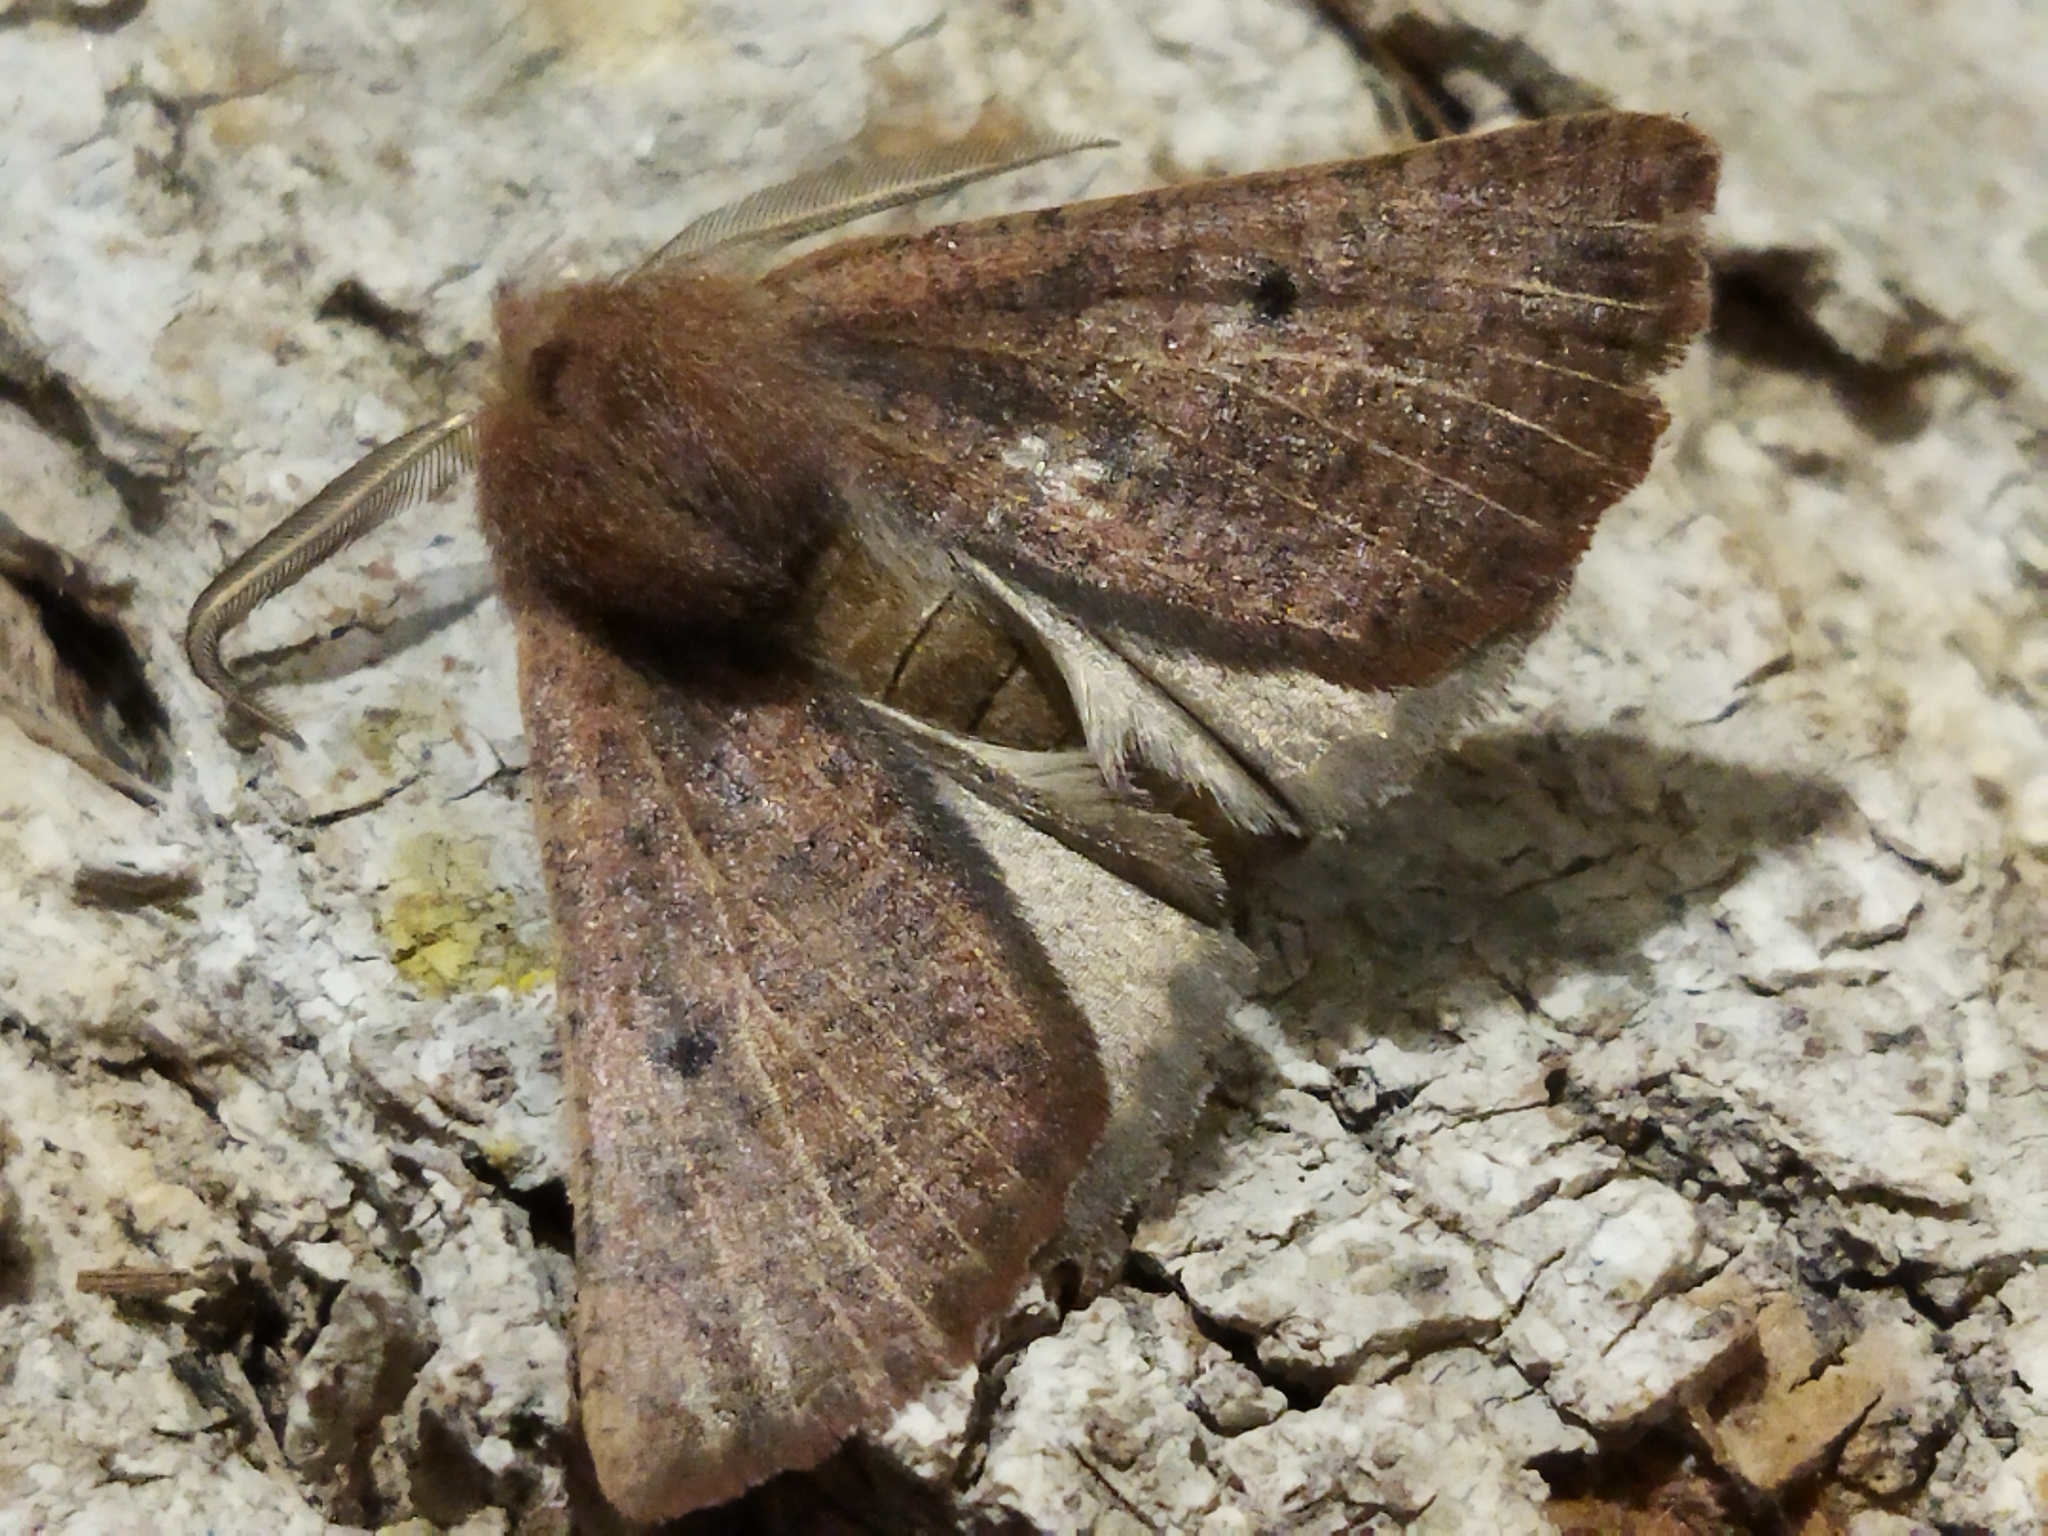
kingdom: Animalia
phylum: Arthropoda
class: Insecta
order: Lepidoptera
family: Geometridae
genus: Dasycorsa
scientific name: Dasycorsa modesta
